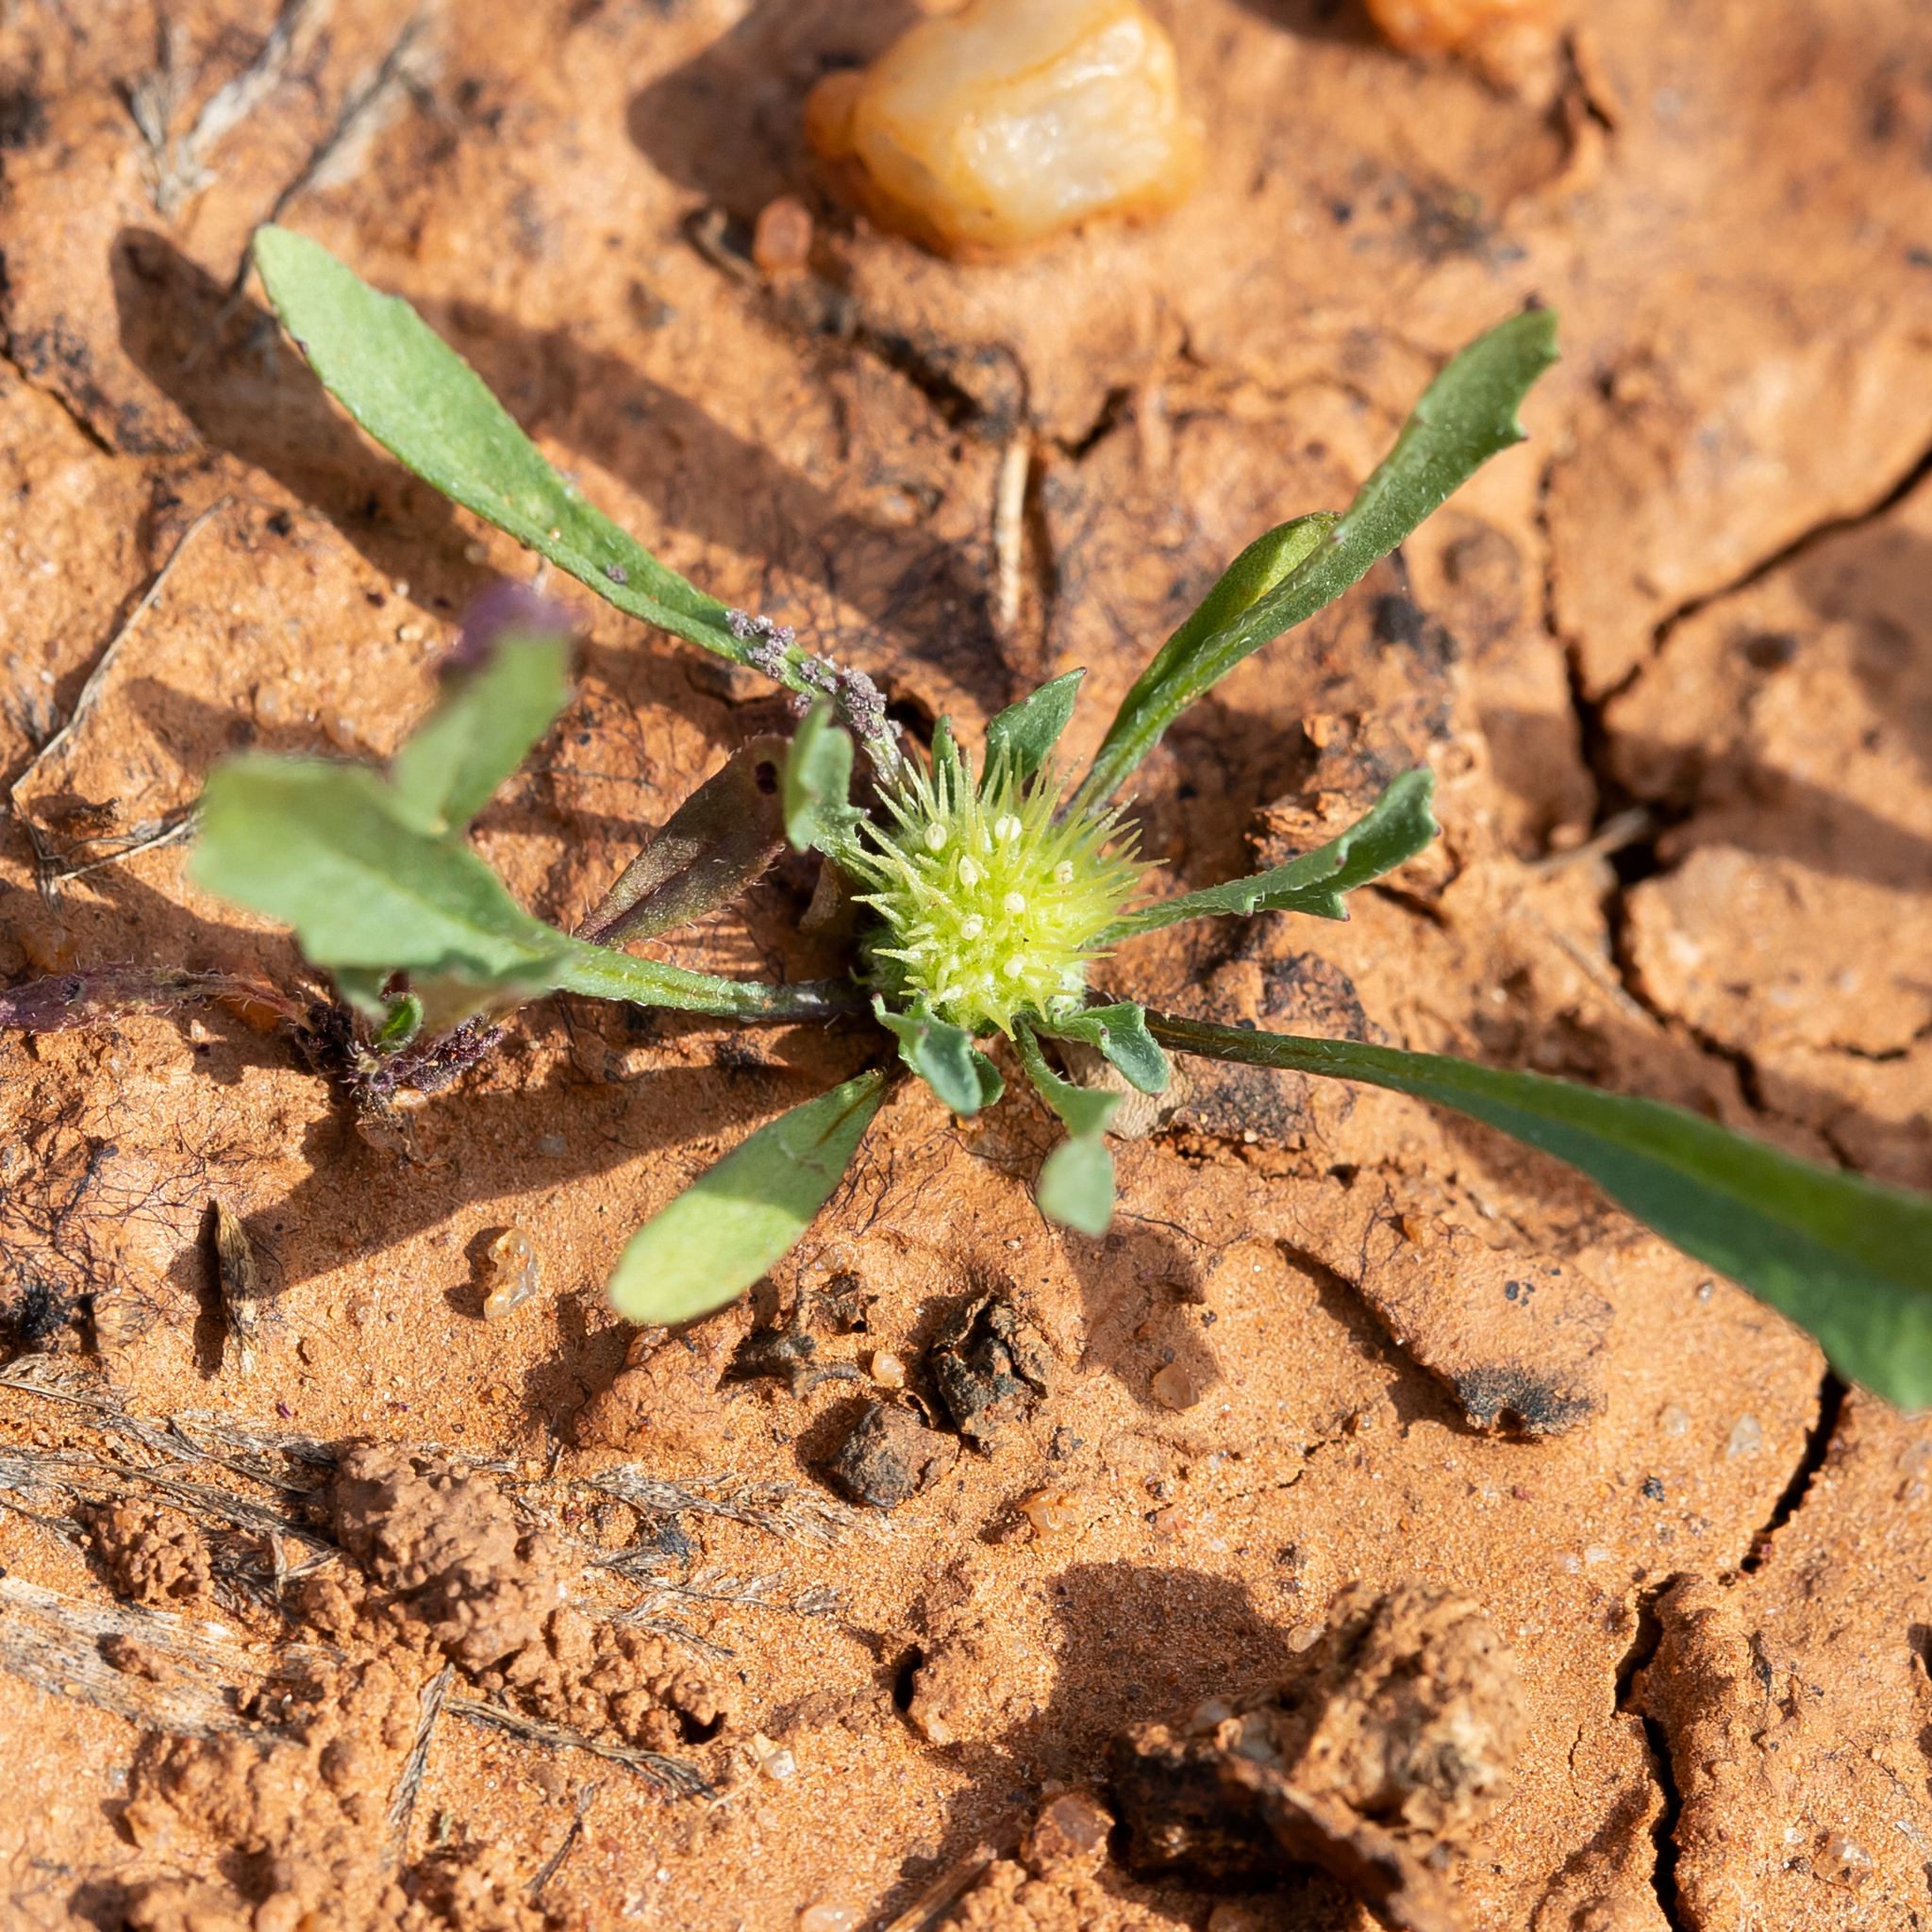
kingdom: Plantae
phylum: Tracheophyta
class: Magnoliopsida
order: Asterales
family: Asteraceae
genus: Calotis
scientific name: Calotis hispidula
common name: Bogan-flea
